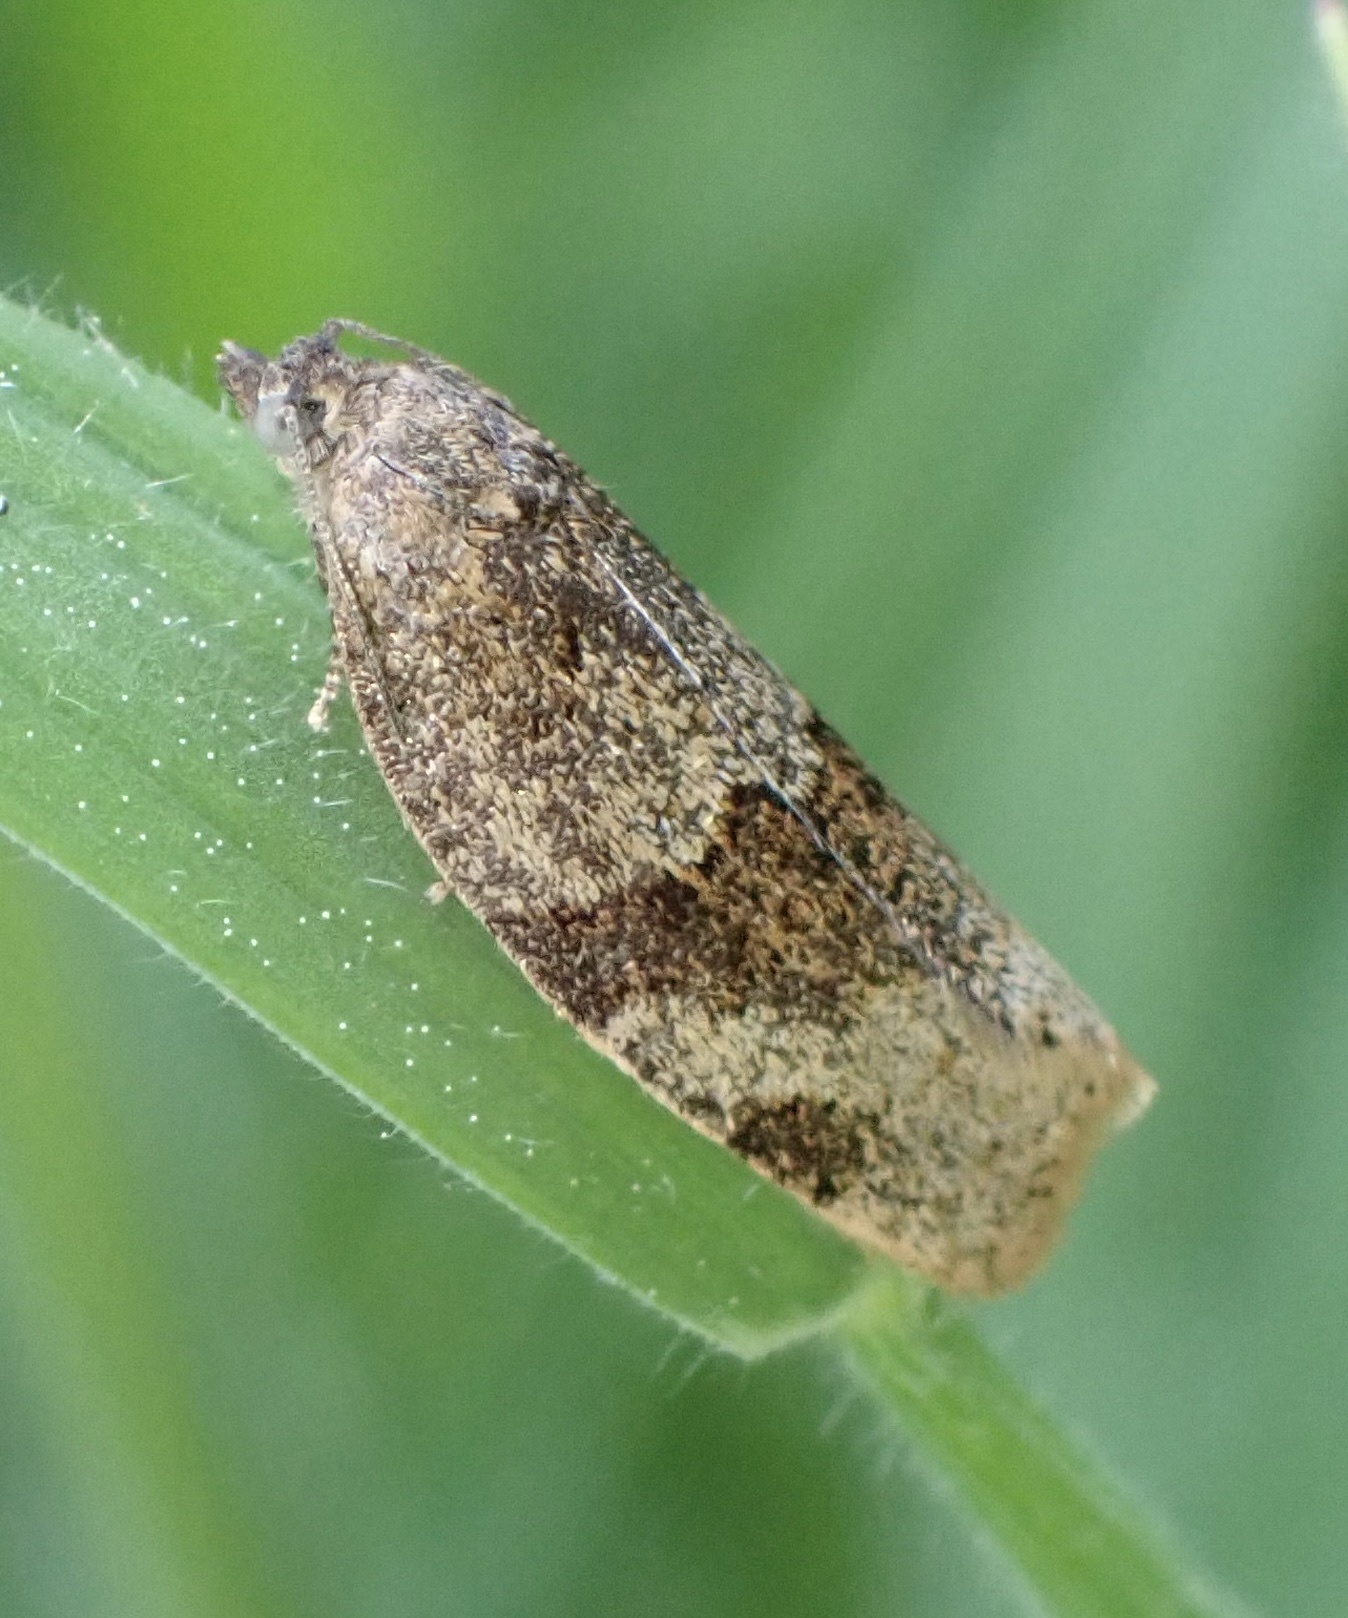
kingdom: Animalia
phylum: Arthropoda
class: Insecta
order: Lepidoptera
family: Tortricidae
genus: Syndemis
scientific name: Syndemis musculana
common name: Dark-barred twist
